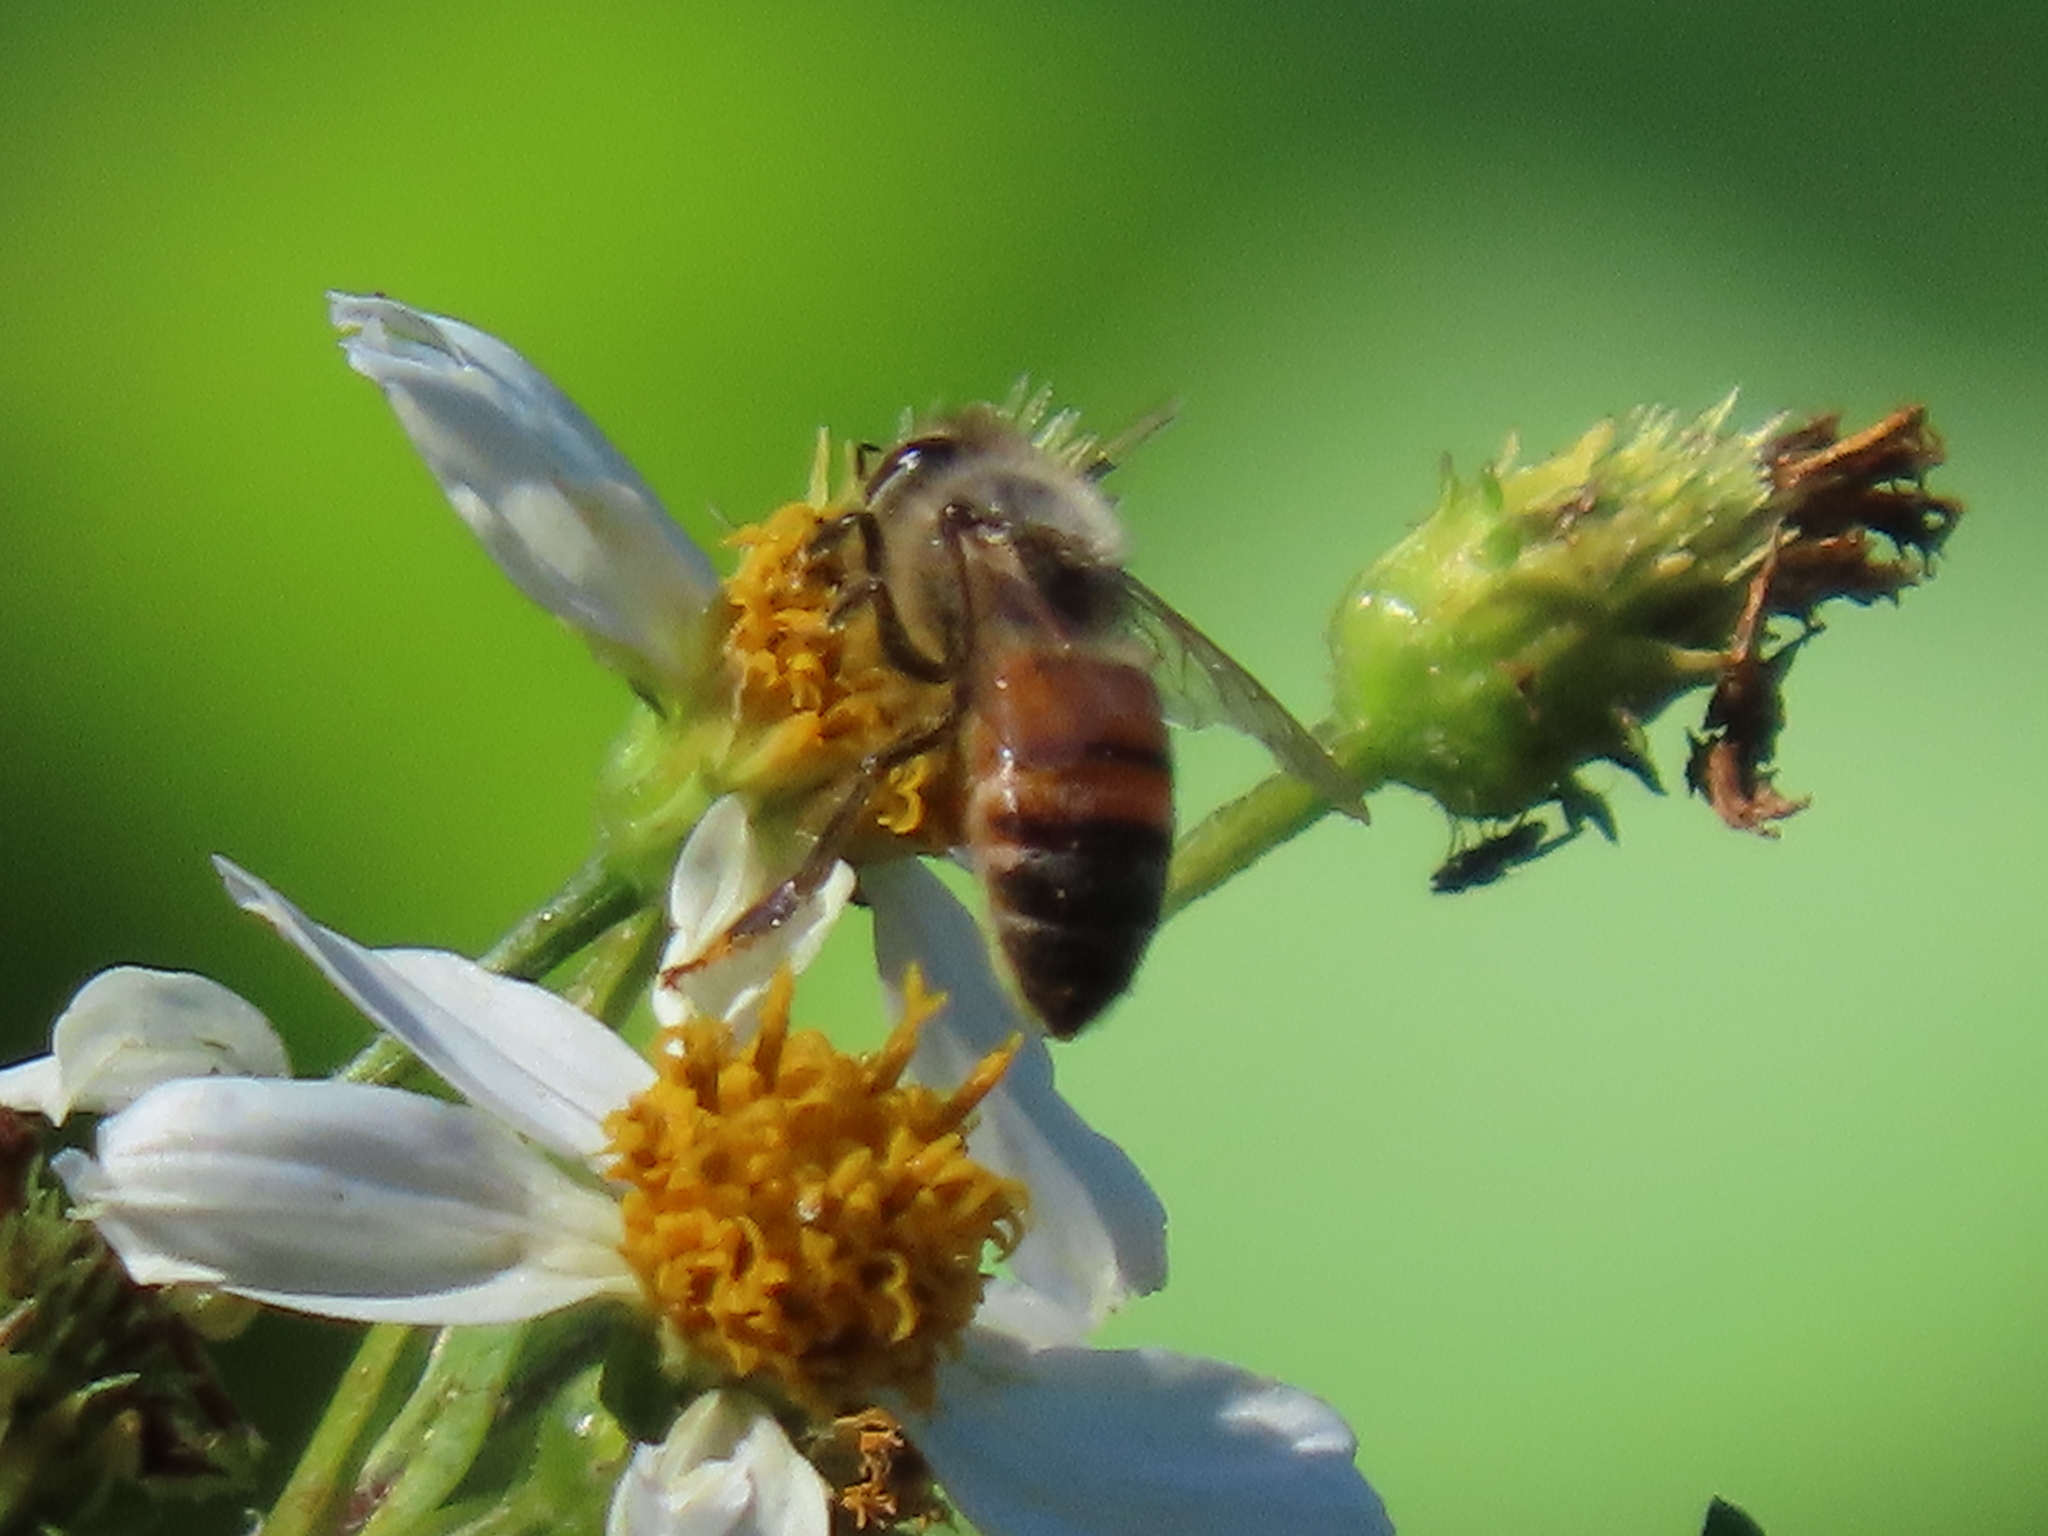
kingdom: Animalia
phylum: Arthropoda
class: Insecta
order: Hymenoptera
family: Apidae
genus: Apis
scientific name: Apis mellifera
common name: Honey bee
